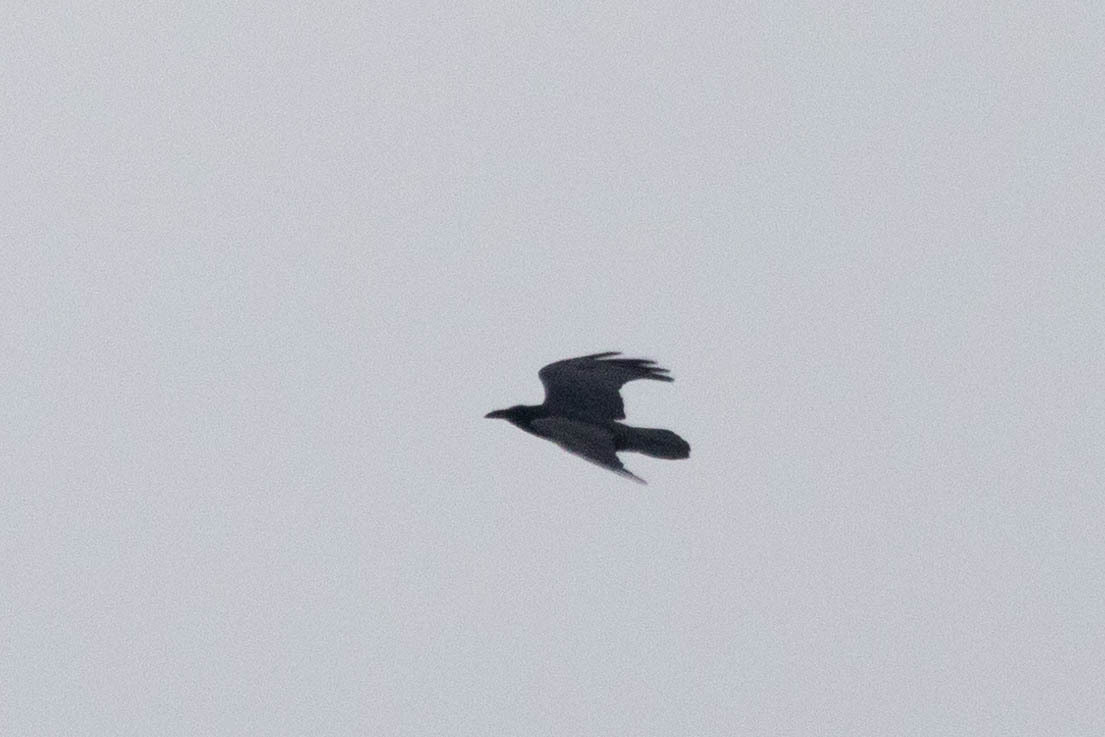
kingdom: Animalia
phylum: Chordata
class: Aves
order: Passeriformes
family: Corvidae
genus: Corvus
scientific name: Corvus corax
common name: Common raven
